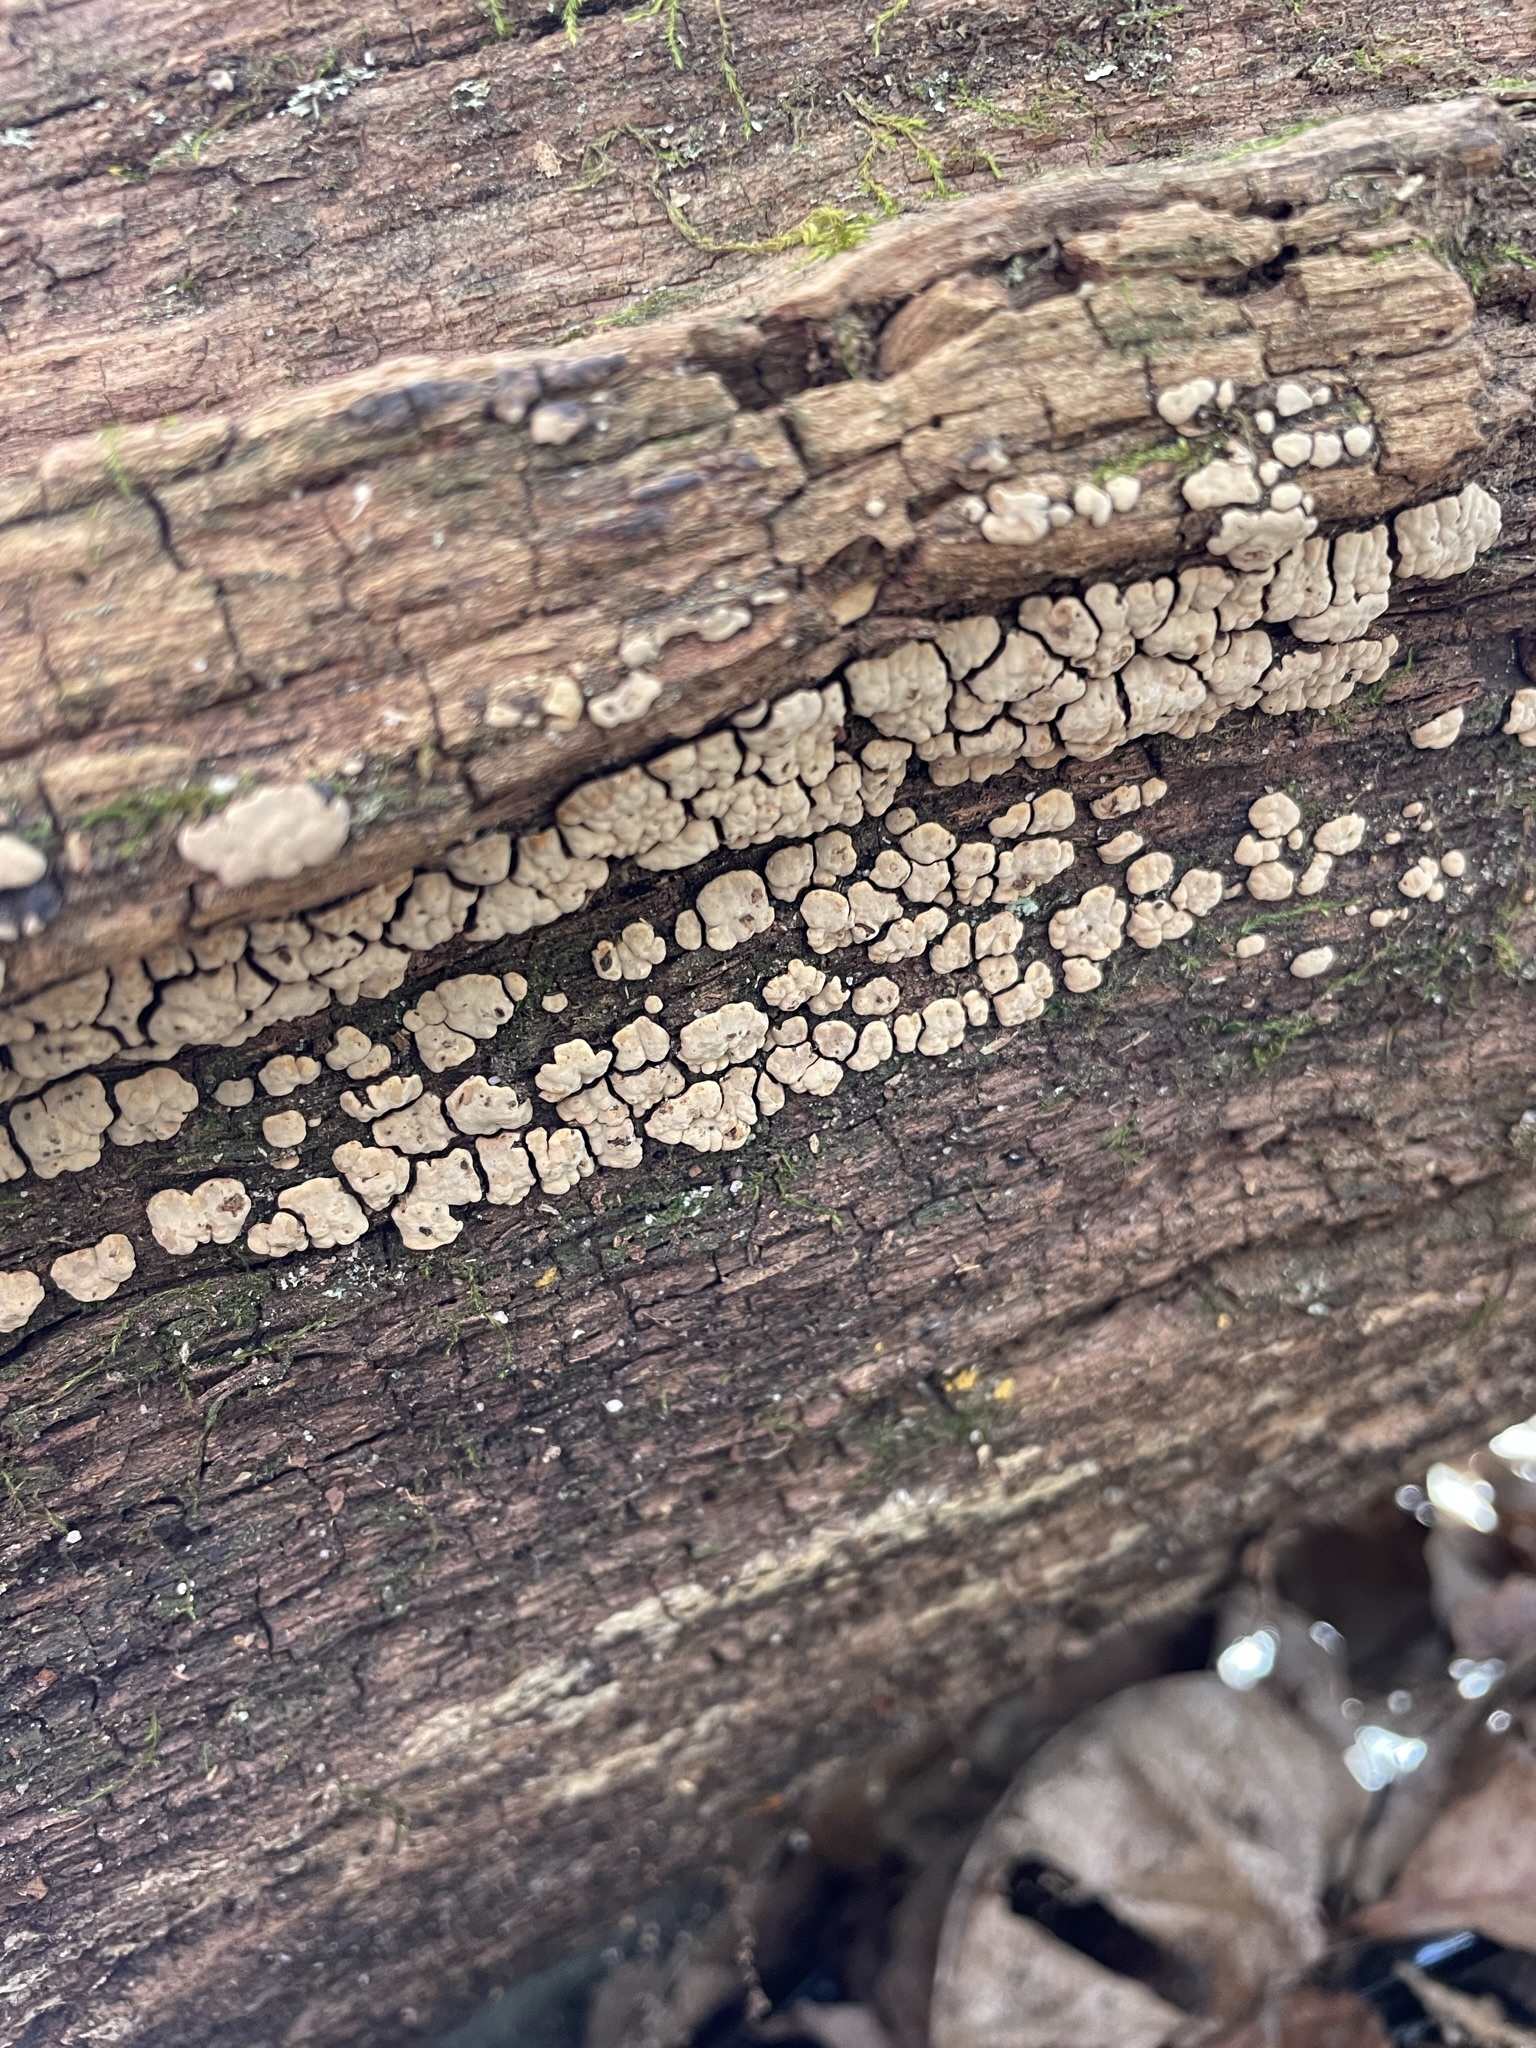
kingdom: Fungi
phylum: Basidiomycota
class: Agaricomycetes
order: Russulales
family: Stereaceae
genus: Xylobolus
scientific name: Xylobolus frustulatus
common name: Ceramic parchment
